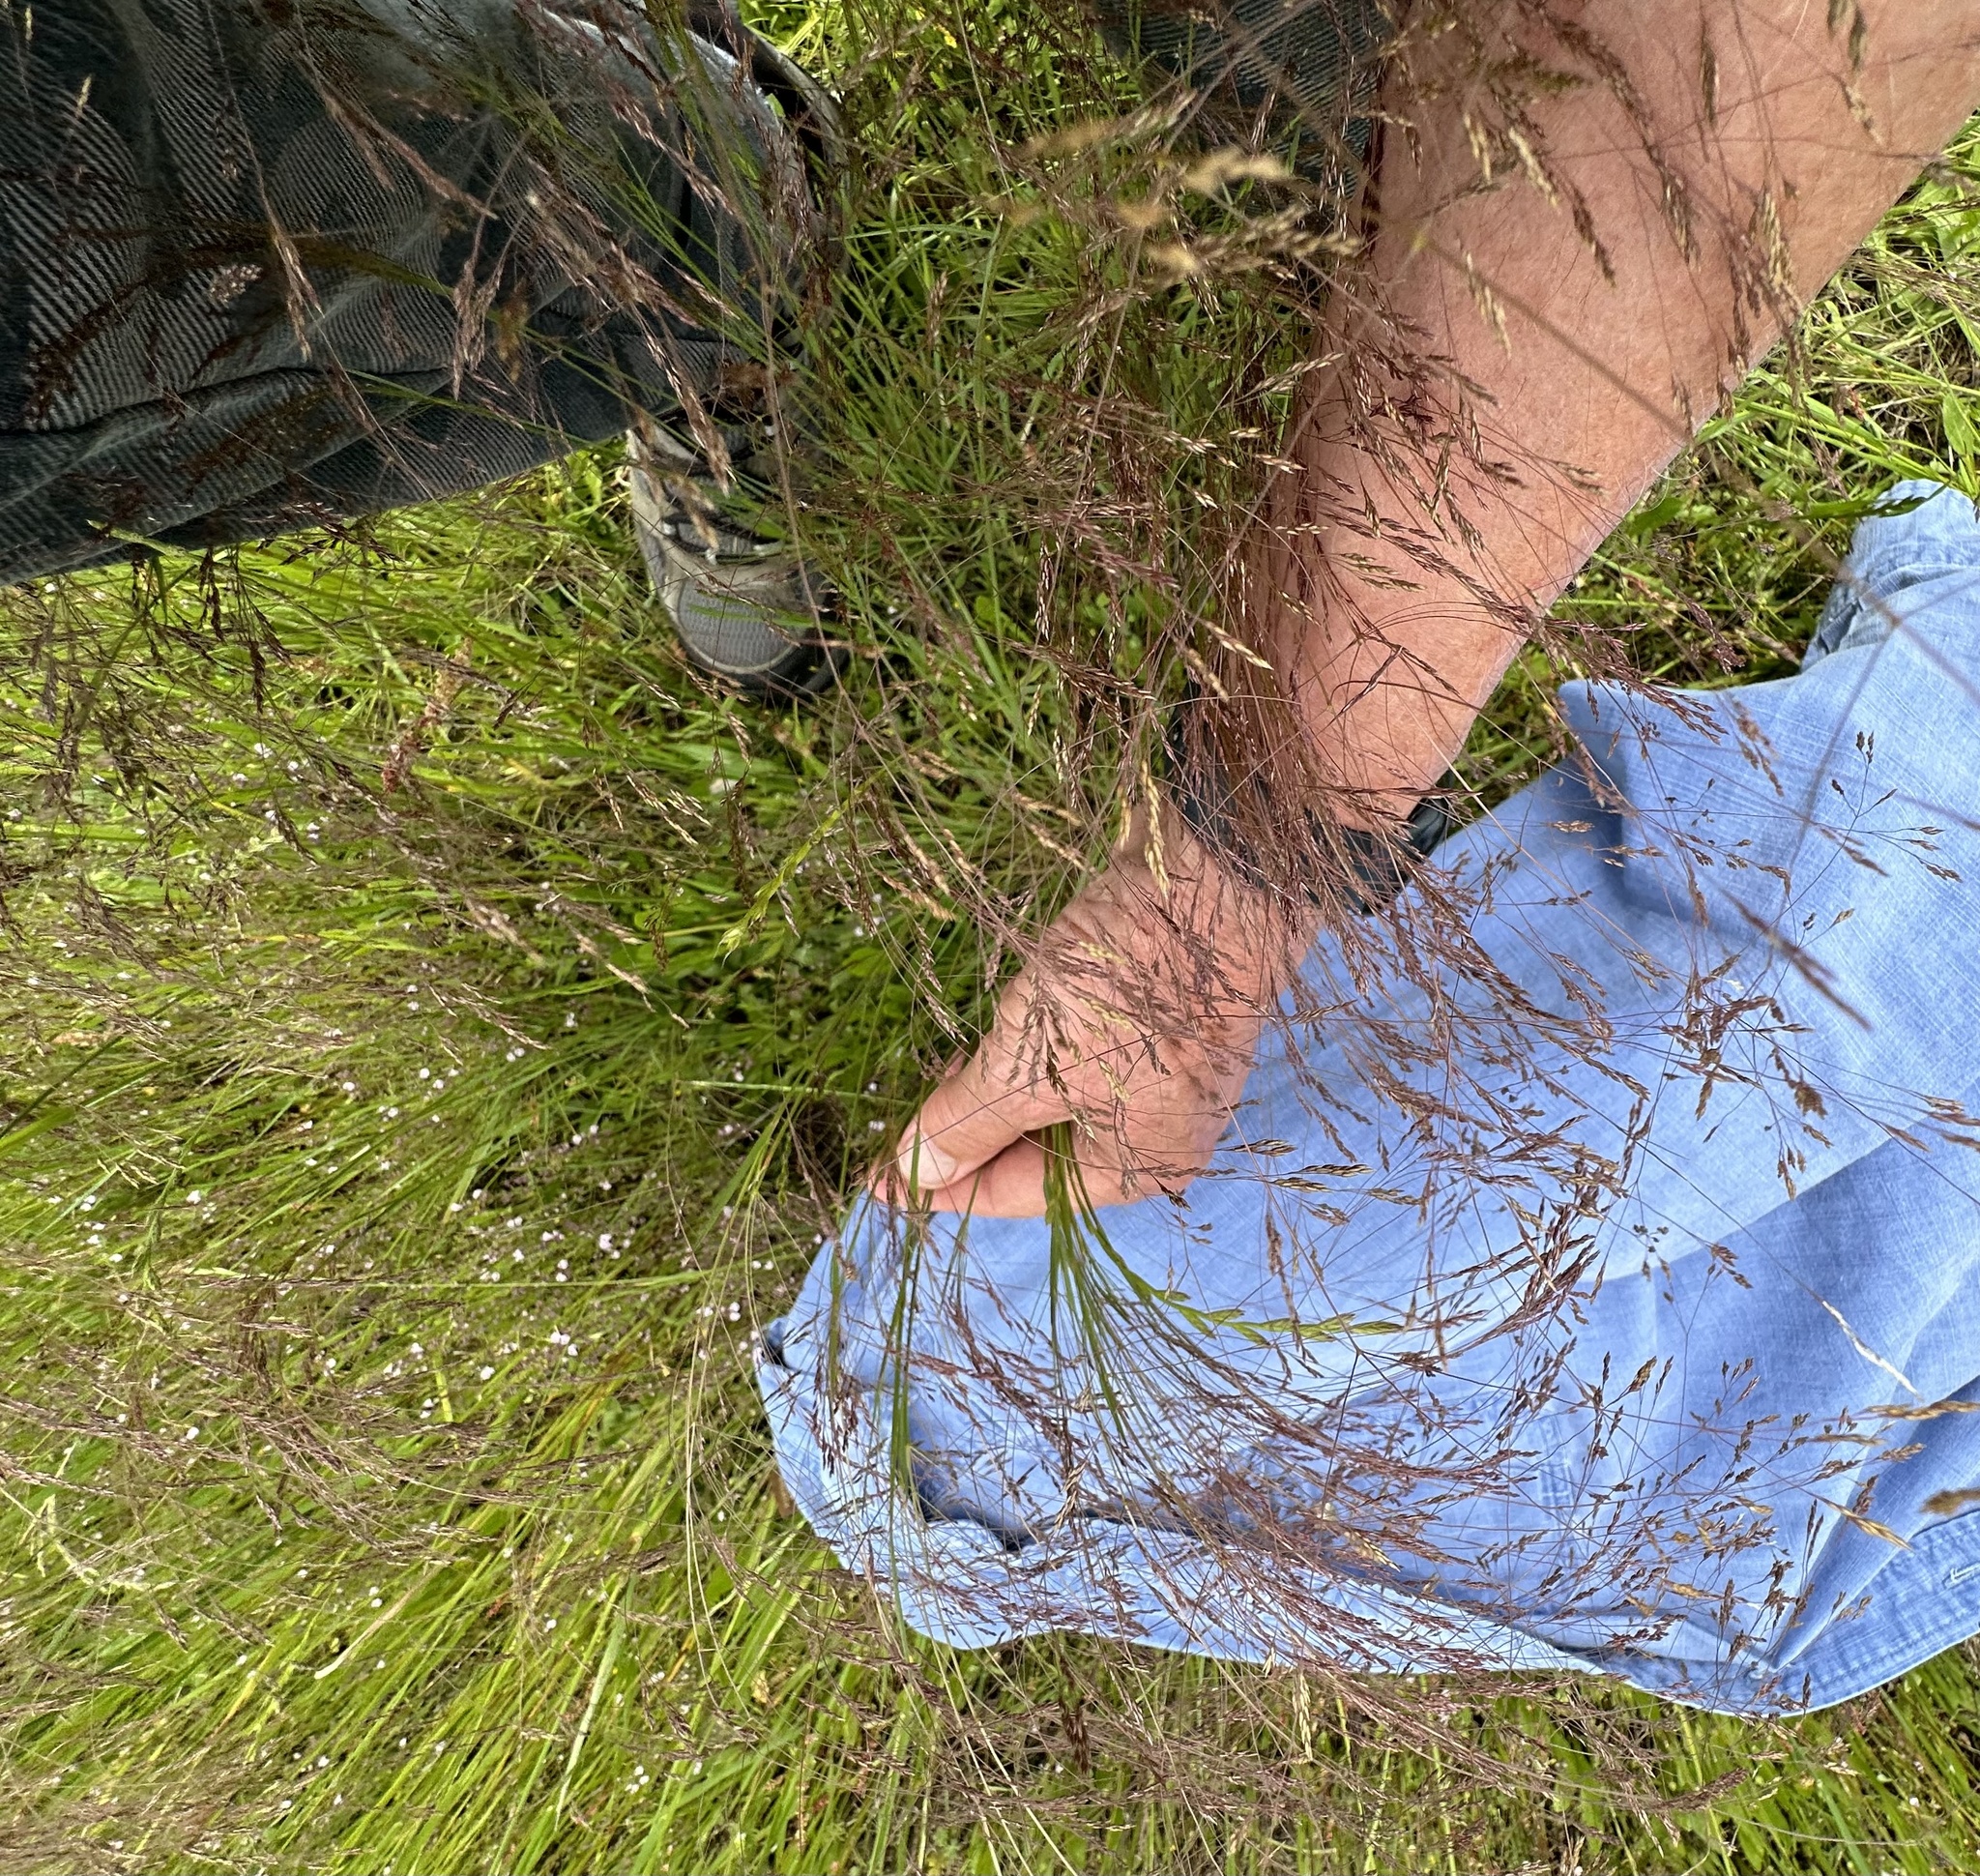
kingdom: Plantae
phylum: Tracheophyta
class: Liliopsida
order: Poales
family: Poaceae
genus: Agrostis
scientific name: Agrostis hyemalis
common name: Small bent
